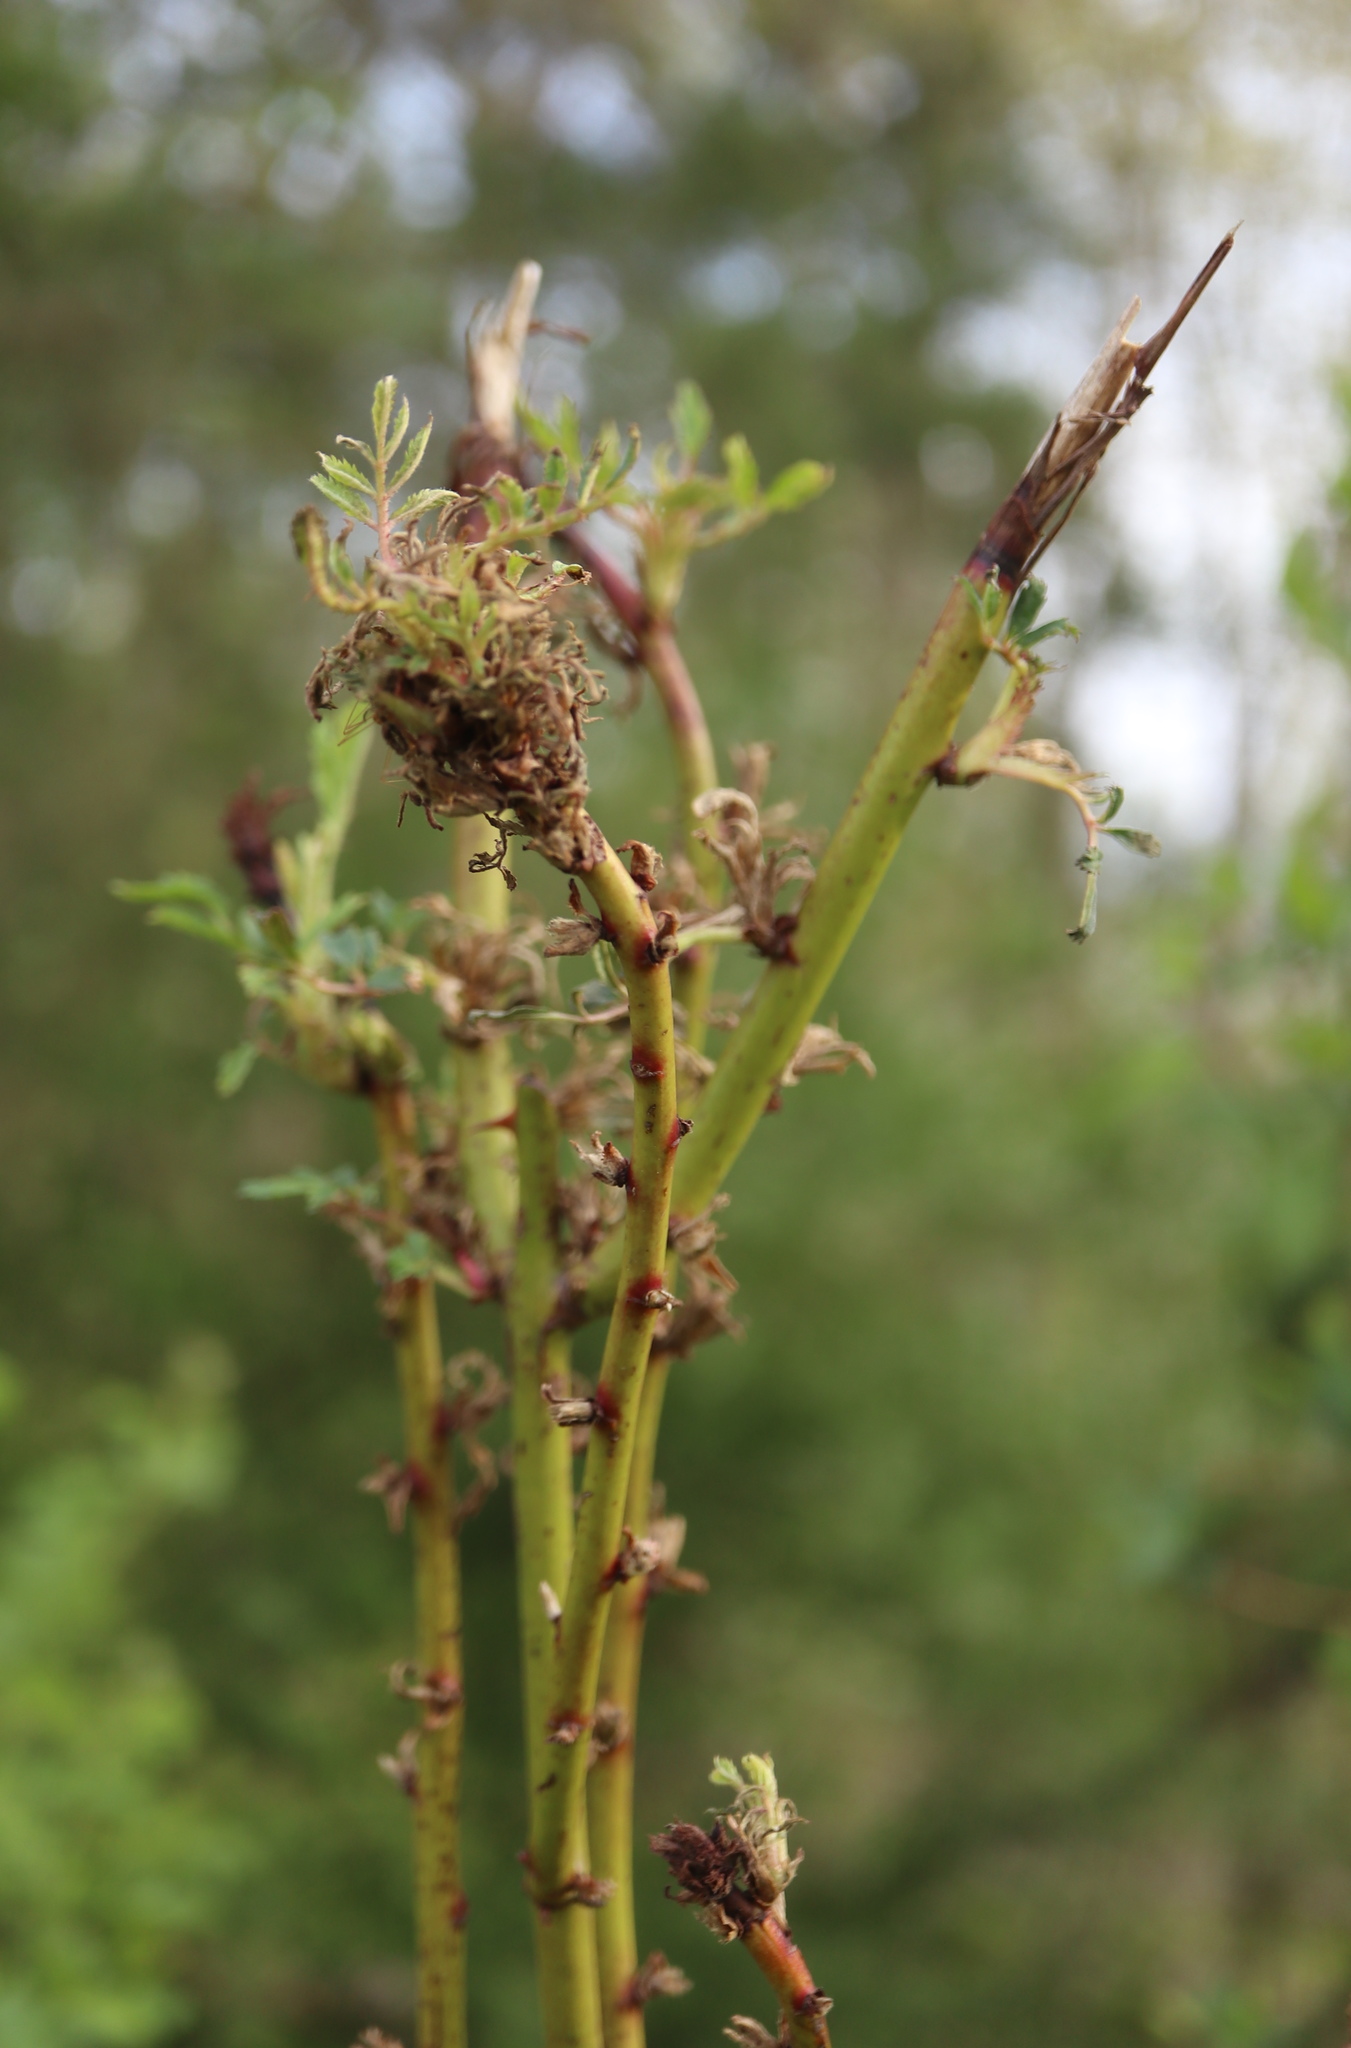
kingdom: Animalia
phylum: Arthropoda
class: Arachnida
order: Trombidiformes
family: Eriophyidae
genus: Phyllocoptes
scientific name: Phyllocoptes
